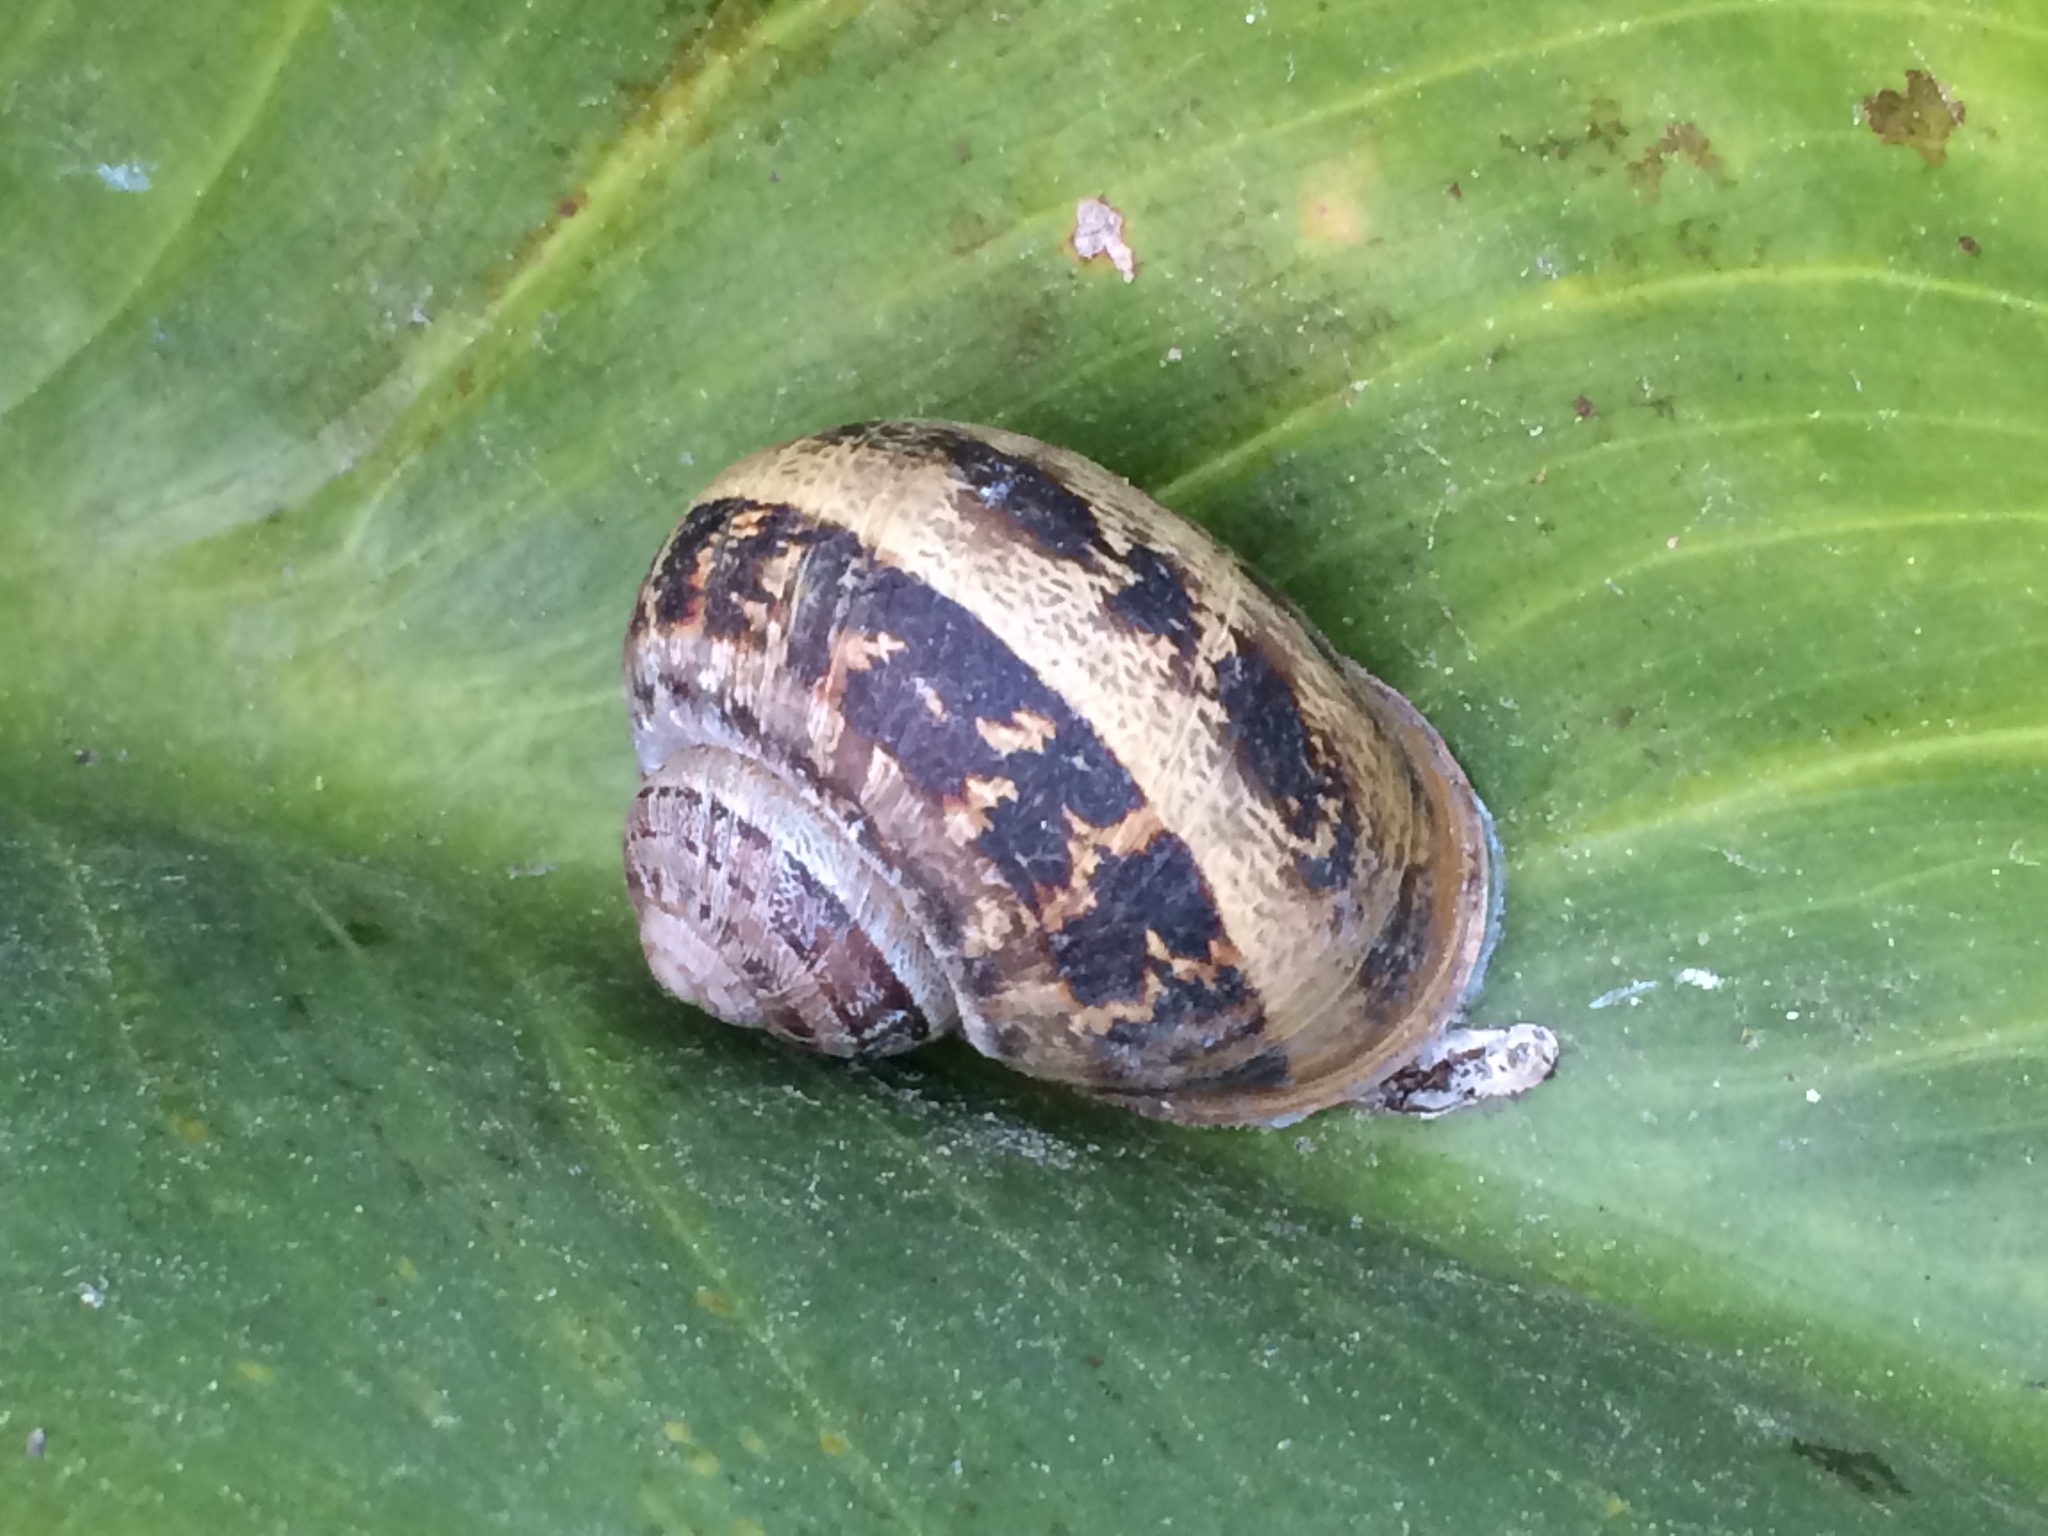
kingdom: Animalia
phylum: Mollusca
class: Gastropoda
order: Stylommatophora
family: Helicidae
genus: Cornu
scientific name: Cornu aspersum
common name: Brown garden snail
